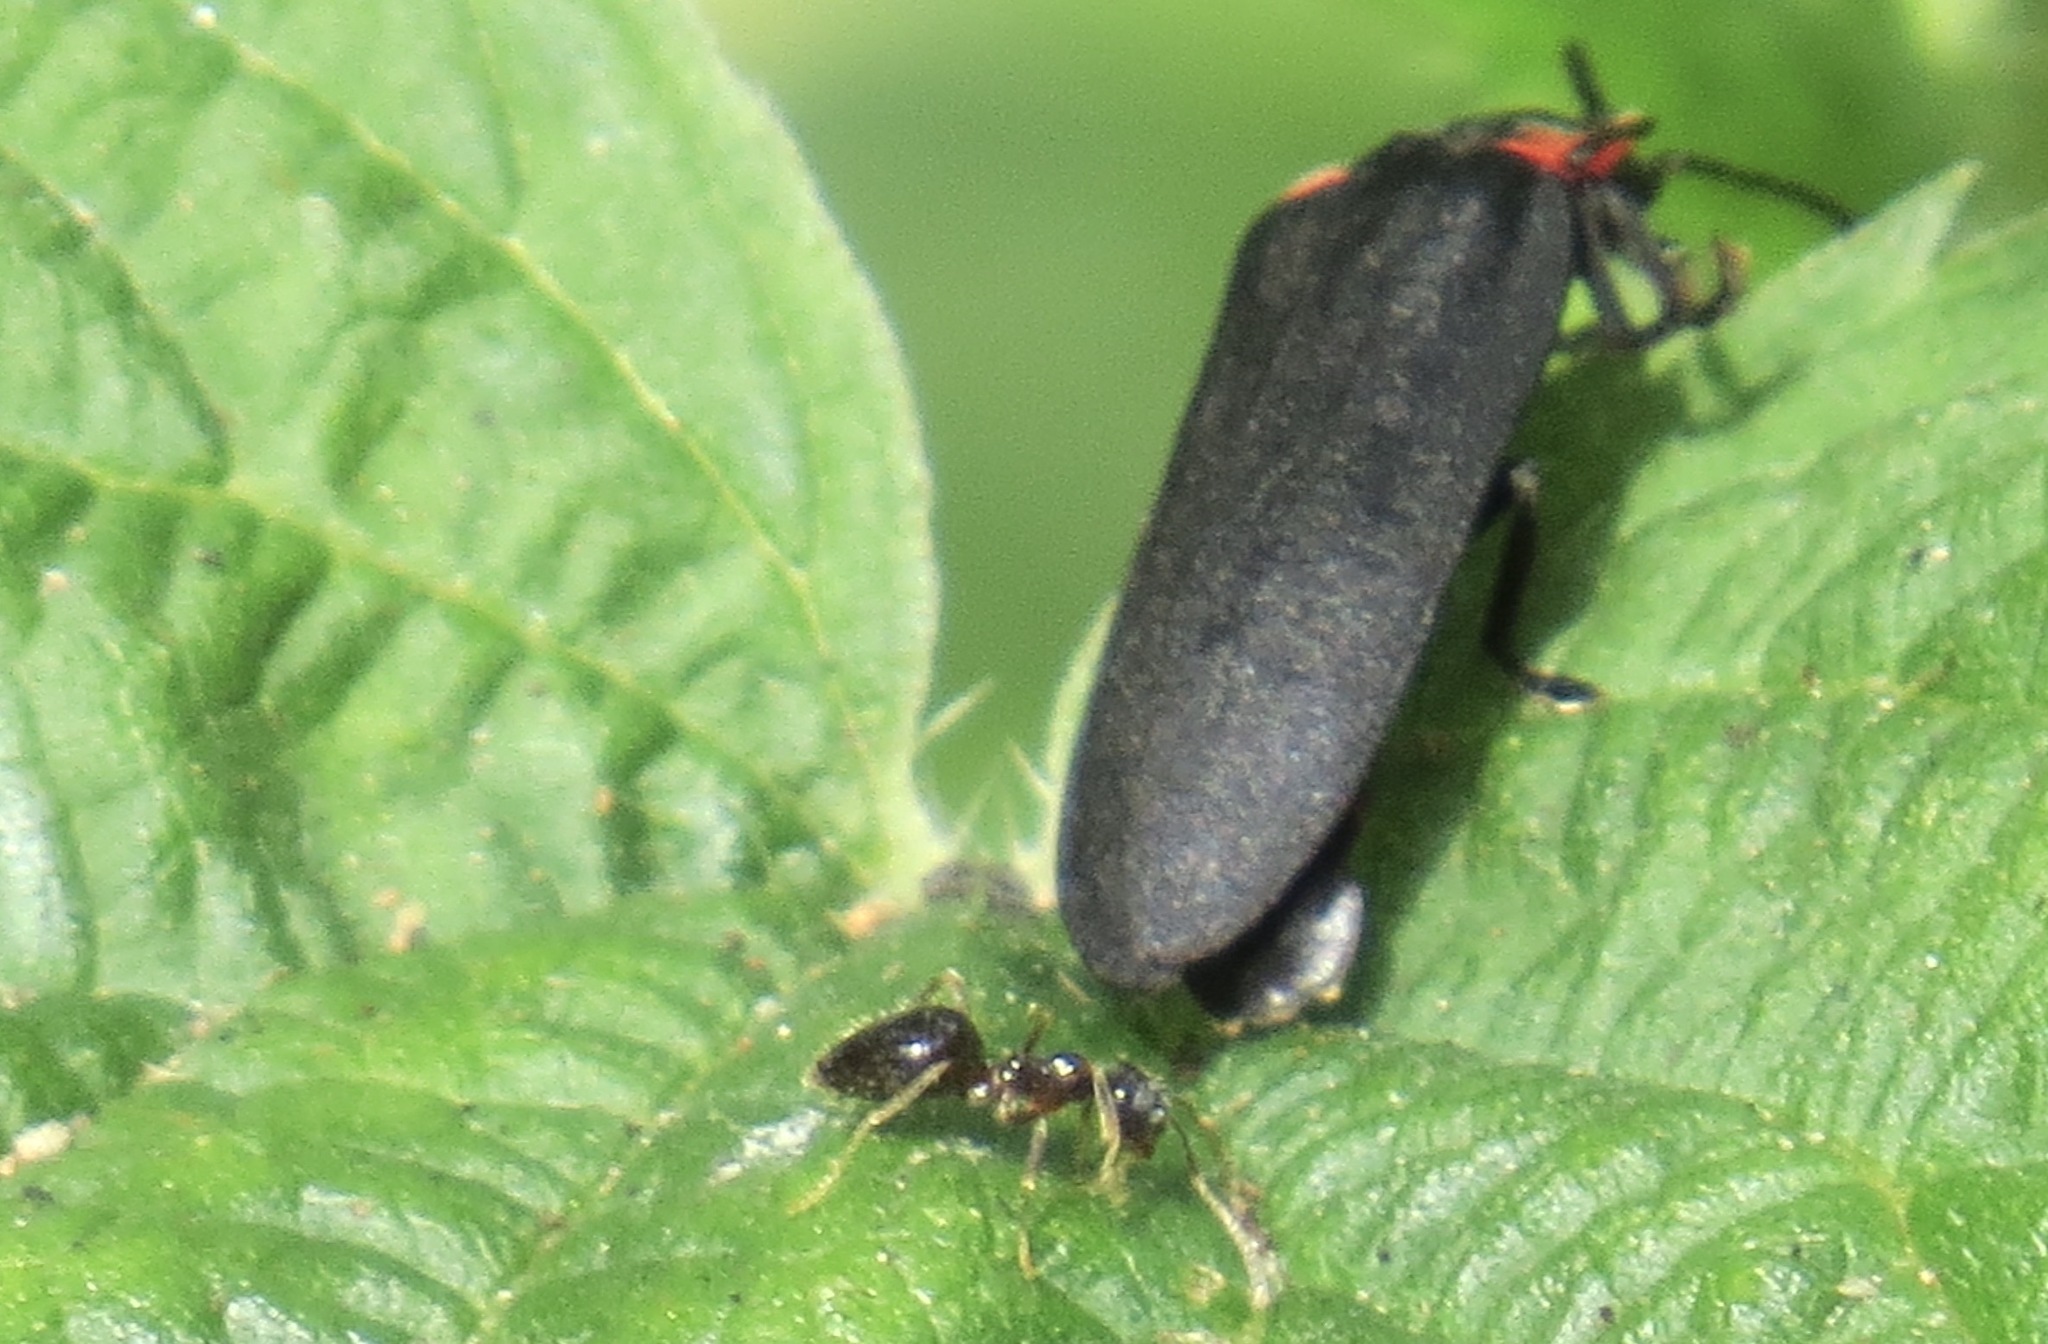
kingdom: Animalia
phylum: Arthropoda
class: Insecta
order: Hymenoptera
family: Formicidae
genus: Prenolepis
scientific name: Prenolepis imparis
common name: Small honey ant
